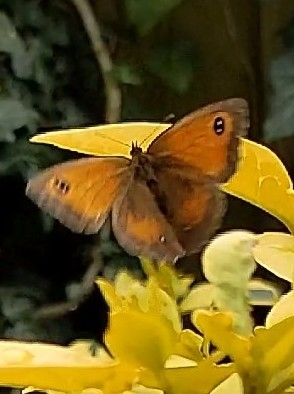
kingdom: Animalia
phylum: Arthropoda
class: Insecta
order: Lepidoptera
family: Nymphalidae
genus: Pyronia
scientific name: Pyronia tithonus
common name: Gatekeeper
